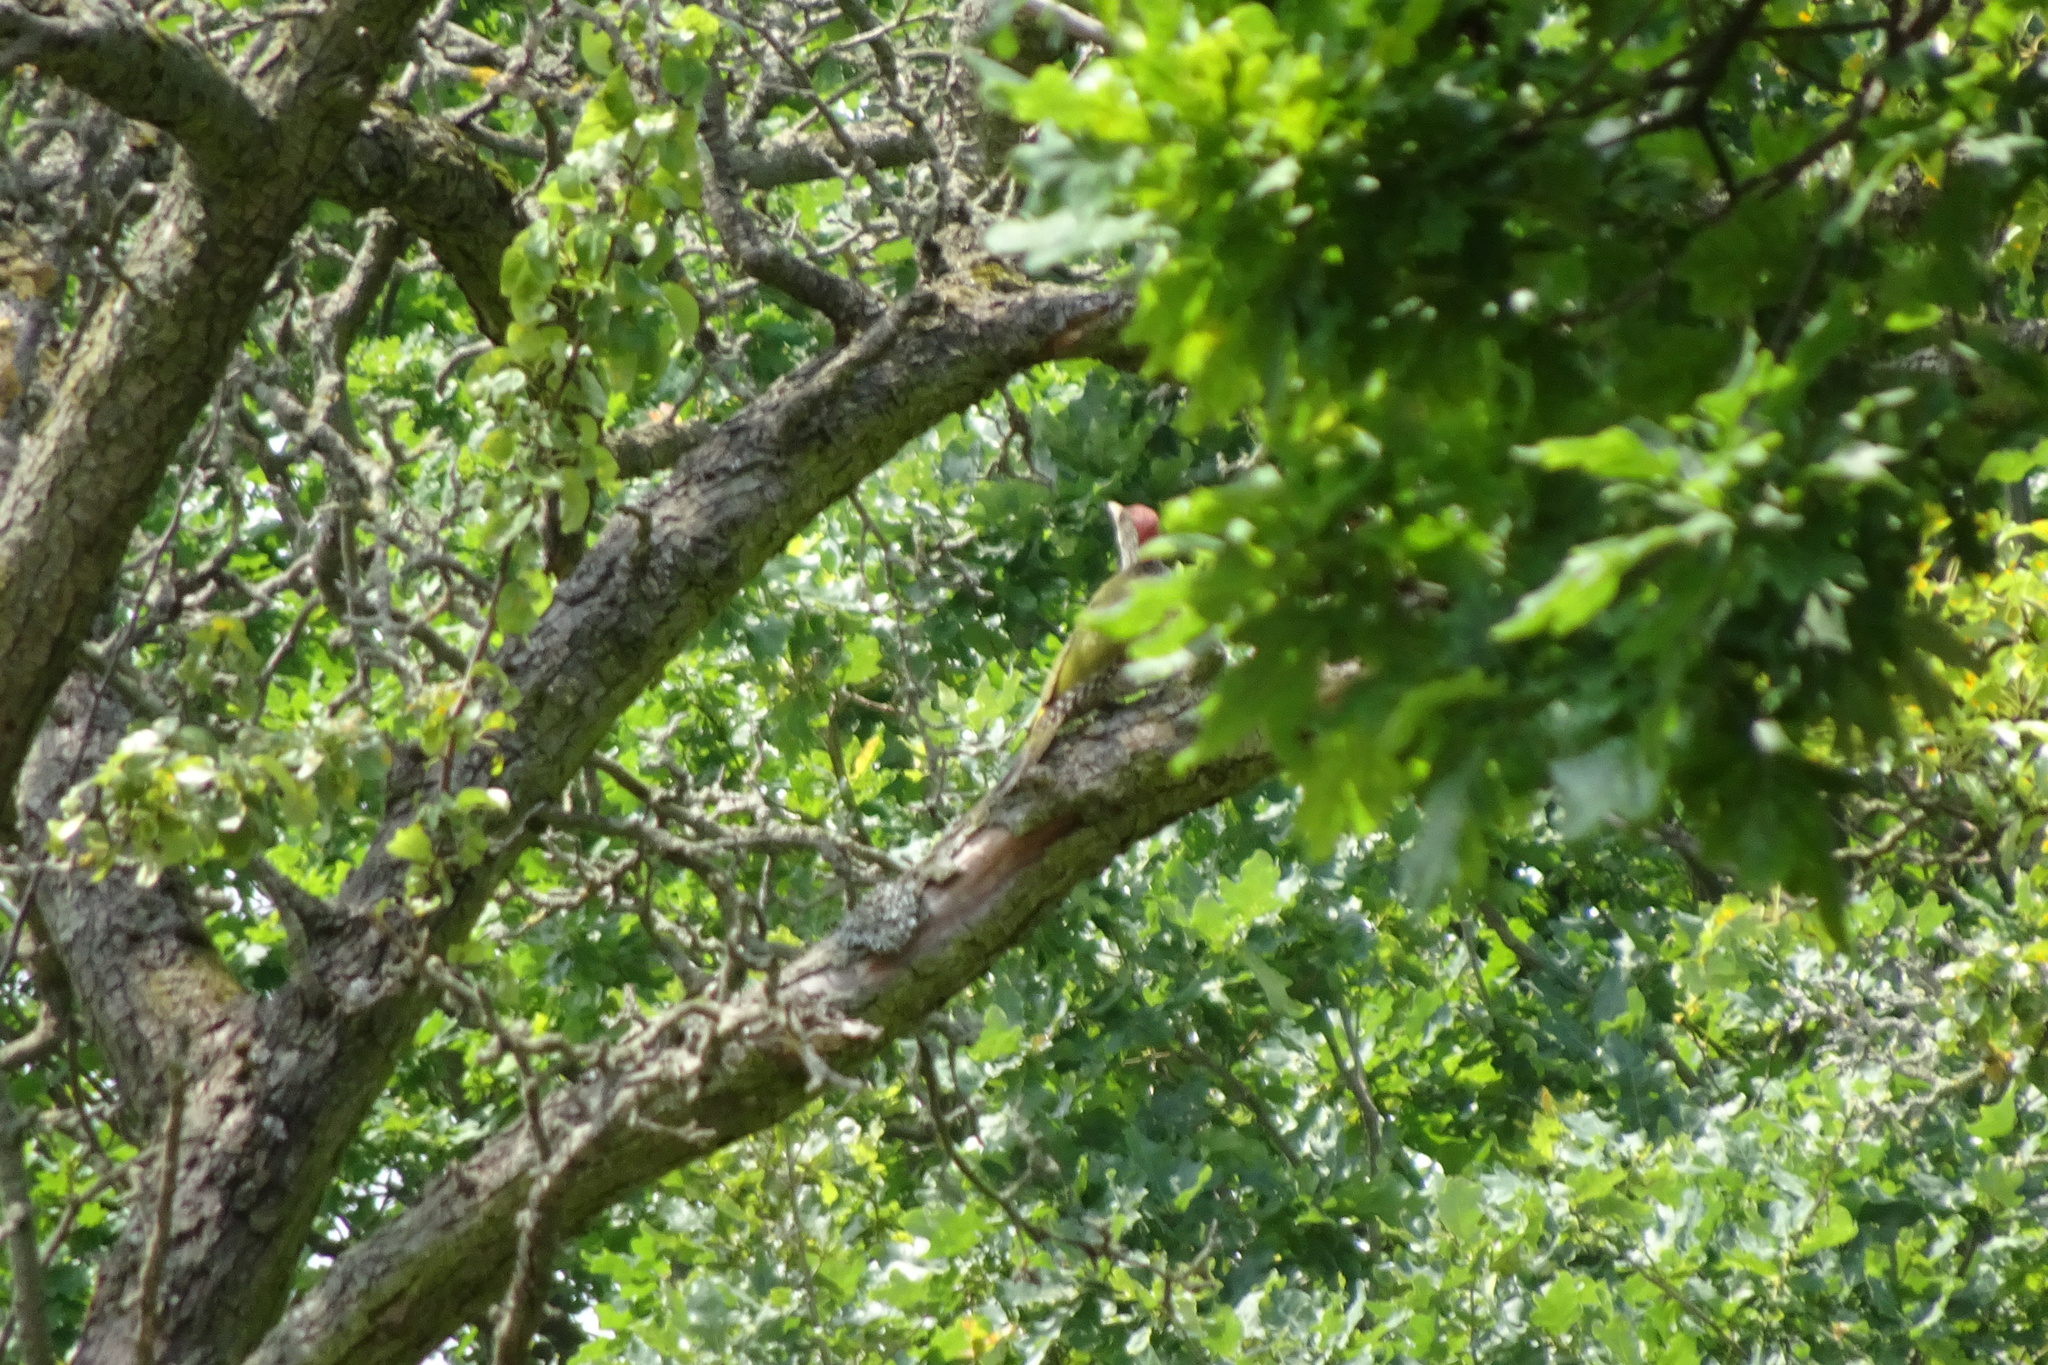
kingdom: Animalia
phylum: Chordata
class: Aves
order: Piciformes
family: Picidae
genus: Picus
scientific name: Picus viridis
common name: European green woodpecker
